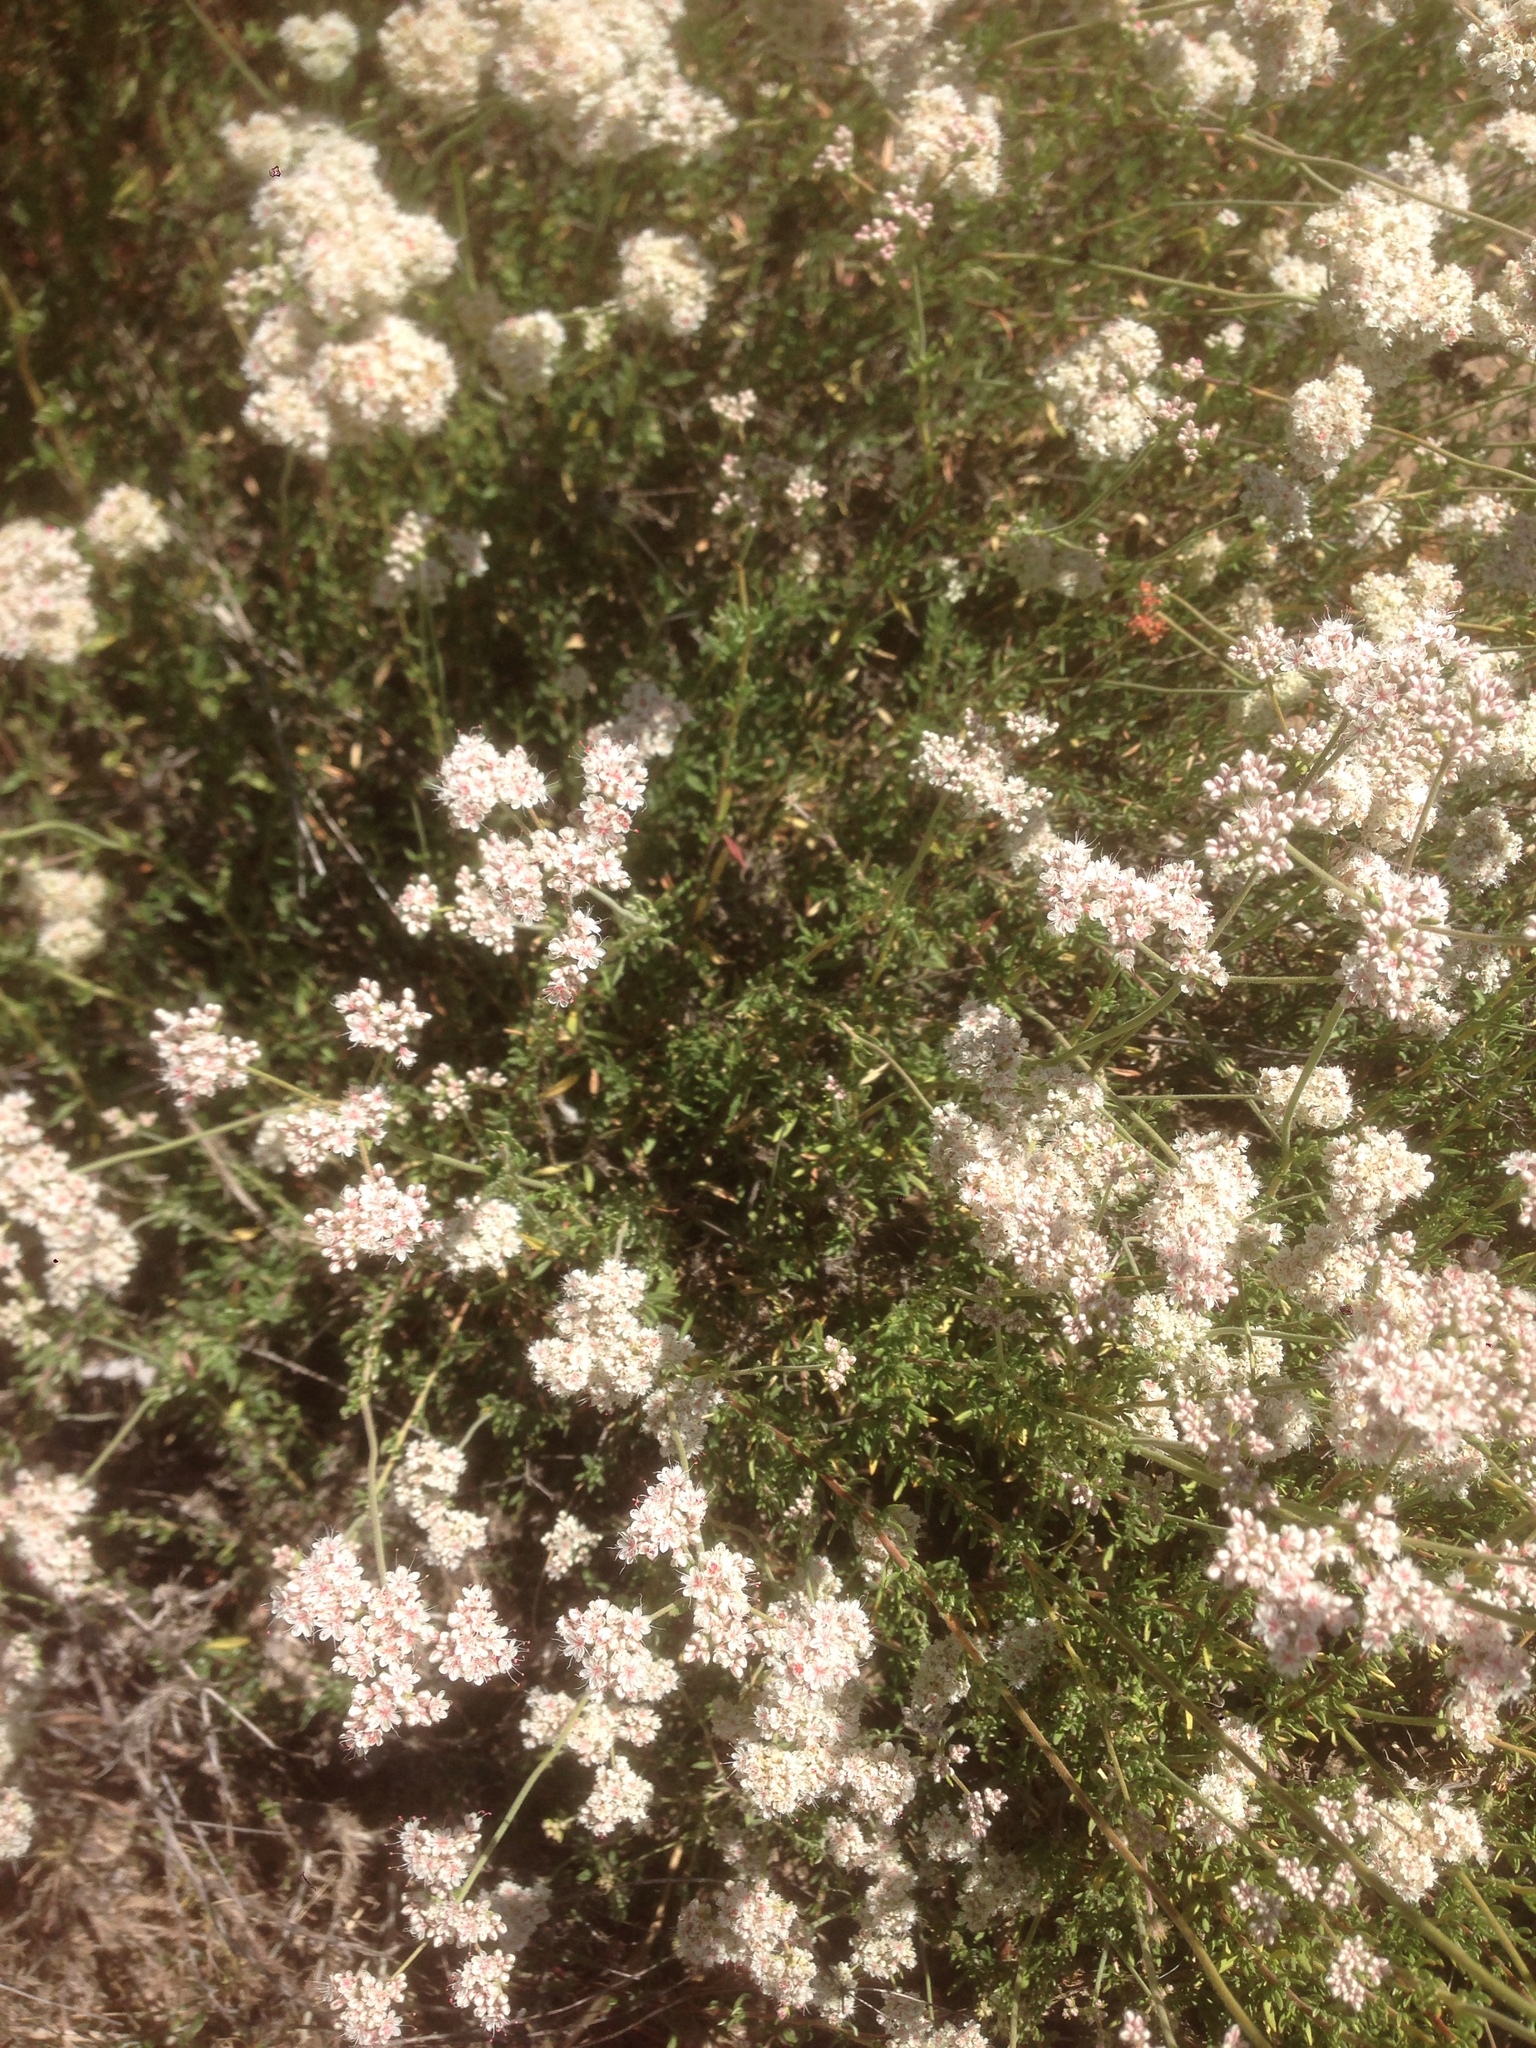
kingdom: Plantae
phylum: Tracheophyta
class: Magnoliopsida
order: Caryophyllales
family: Polygonaceae
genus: Eriogonum
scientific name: Eriogonum fasciculatum
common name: California wild buckwheat
